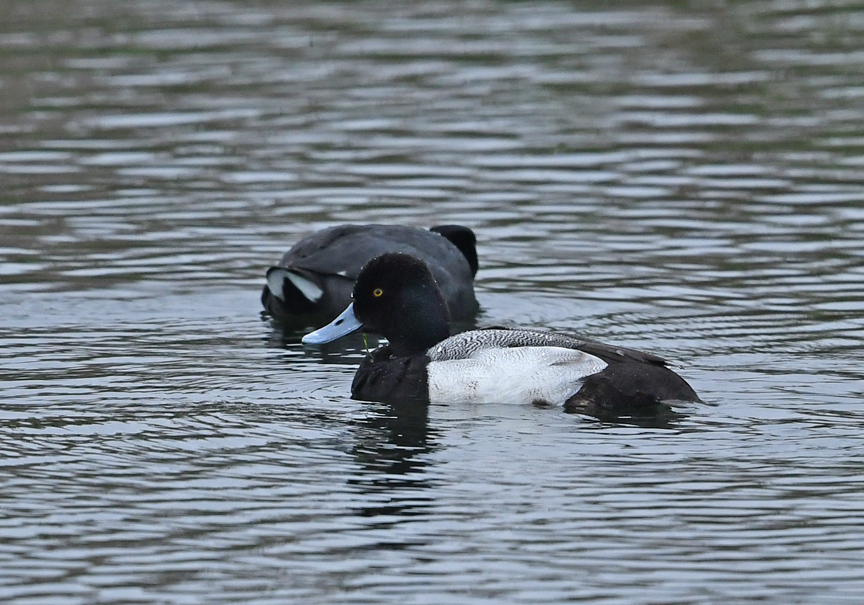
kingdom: Animalia
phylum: Chordata
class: Aves
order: Anseriformes
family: Anatidae
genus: Aythya
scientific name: Aythya affinis
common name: Lesser scaup
